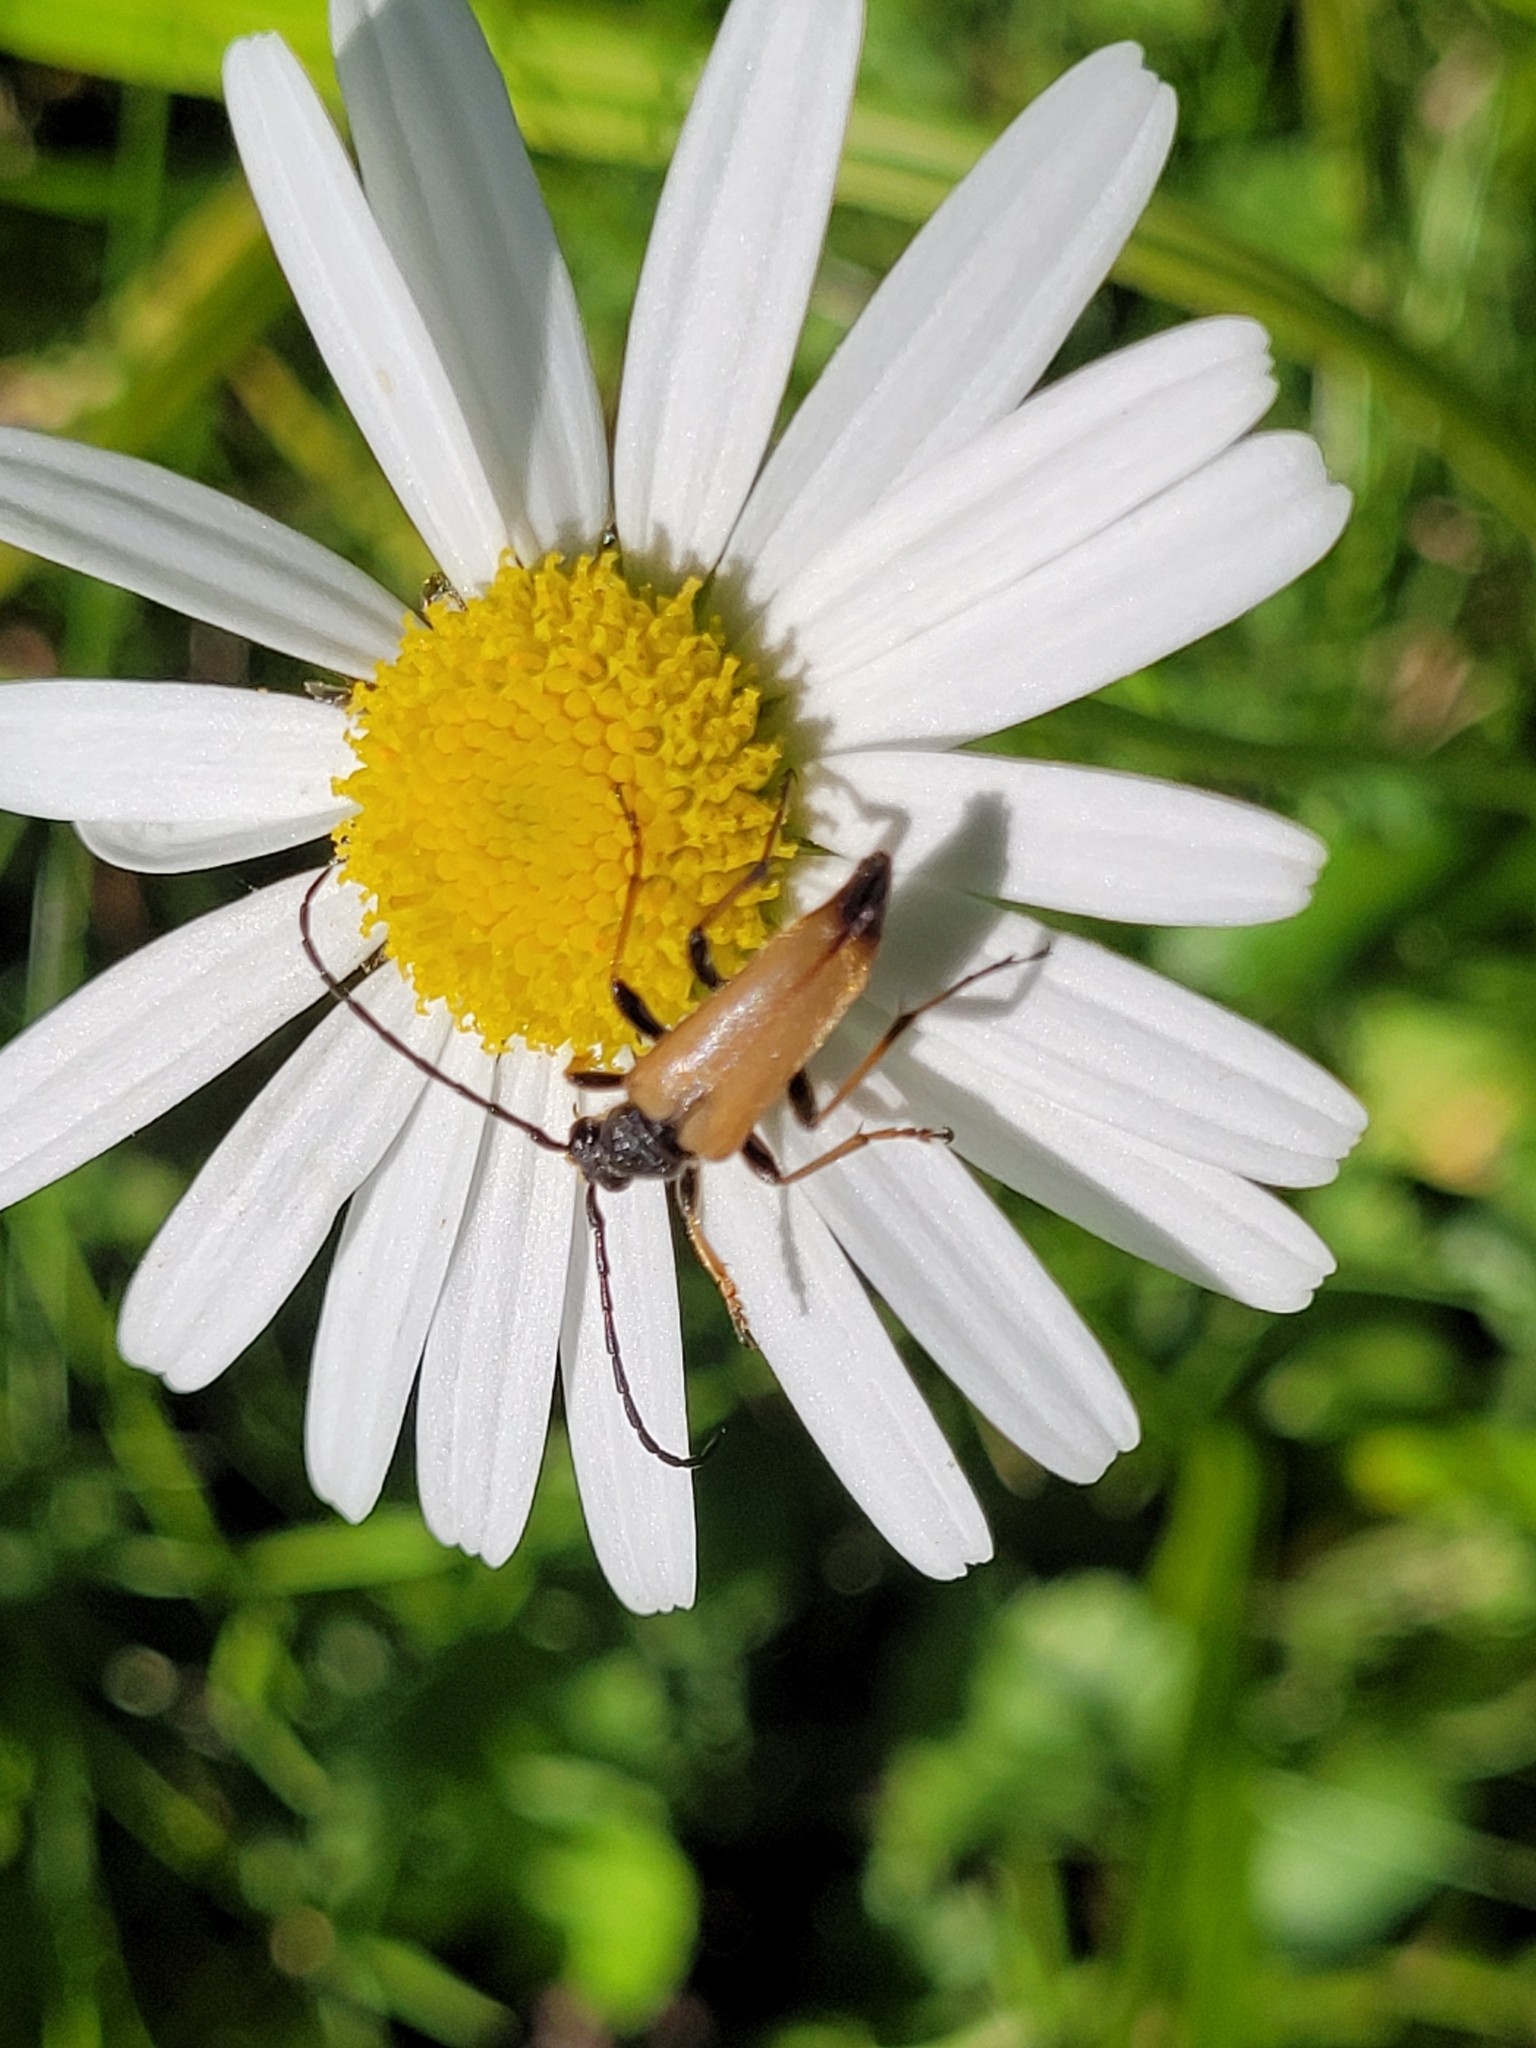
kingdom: Animalia
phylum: Arthropoda
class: Insecta
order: Coleoptera
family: Cerambycidae
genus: Stictoleptura
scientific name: Stictoleptura rubra
